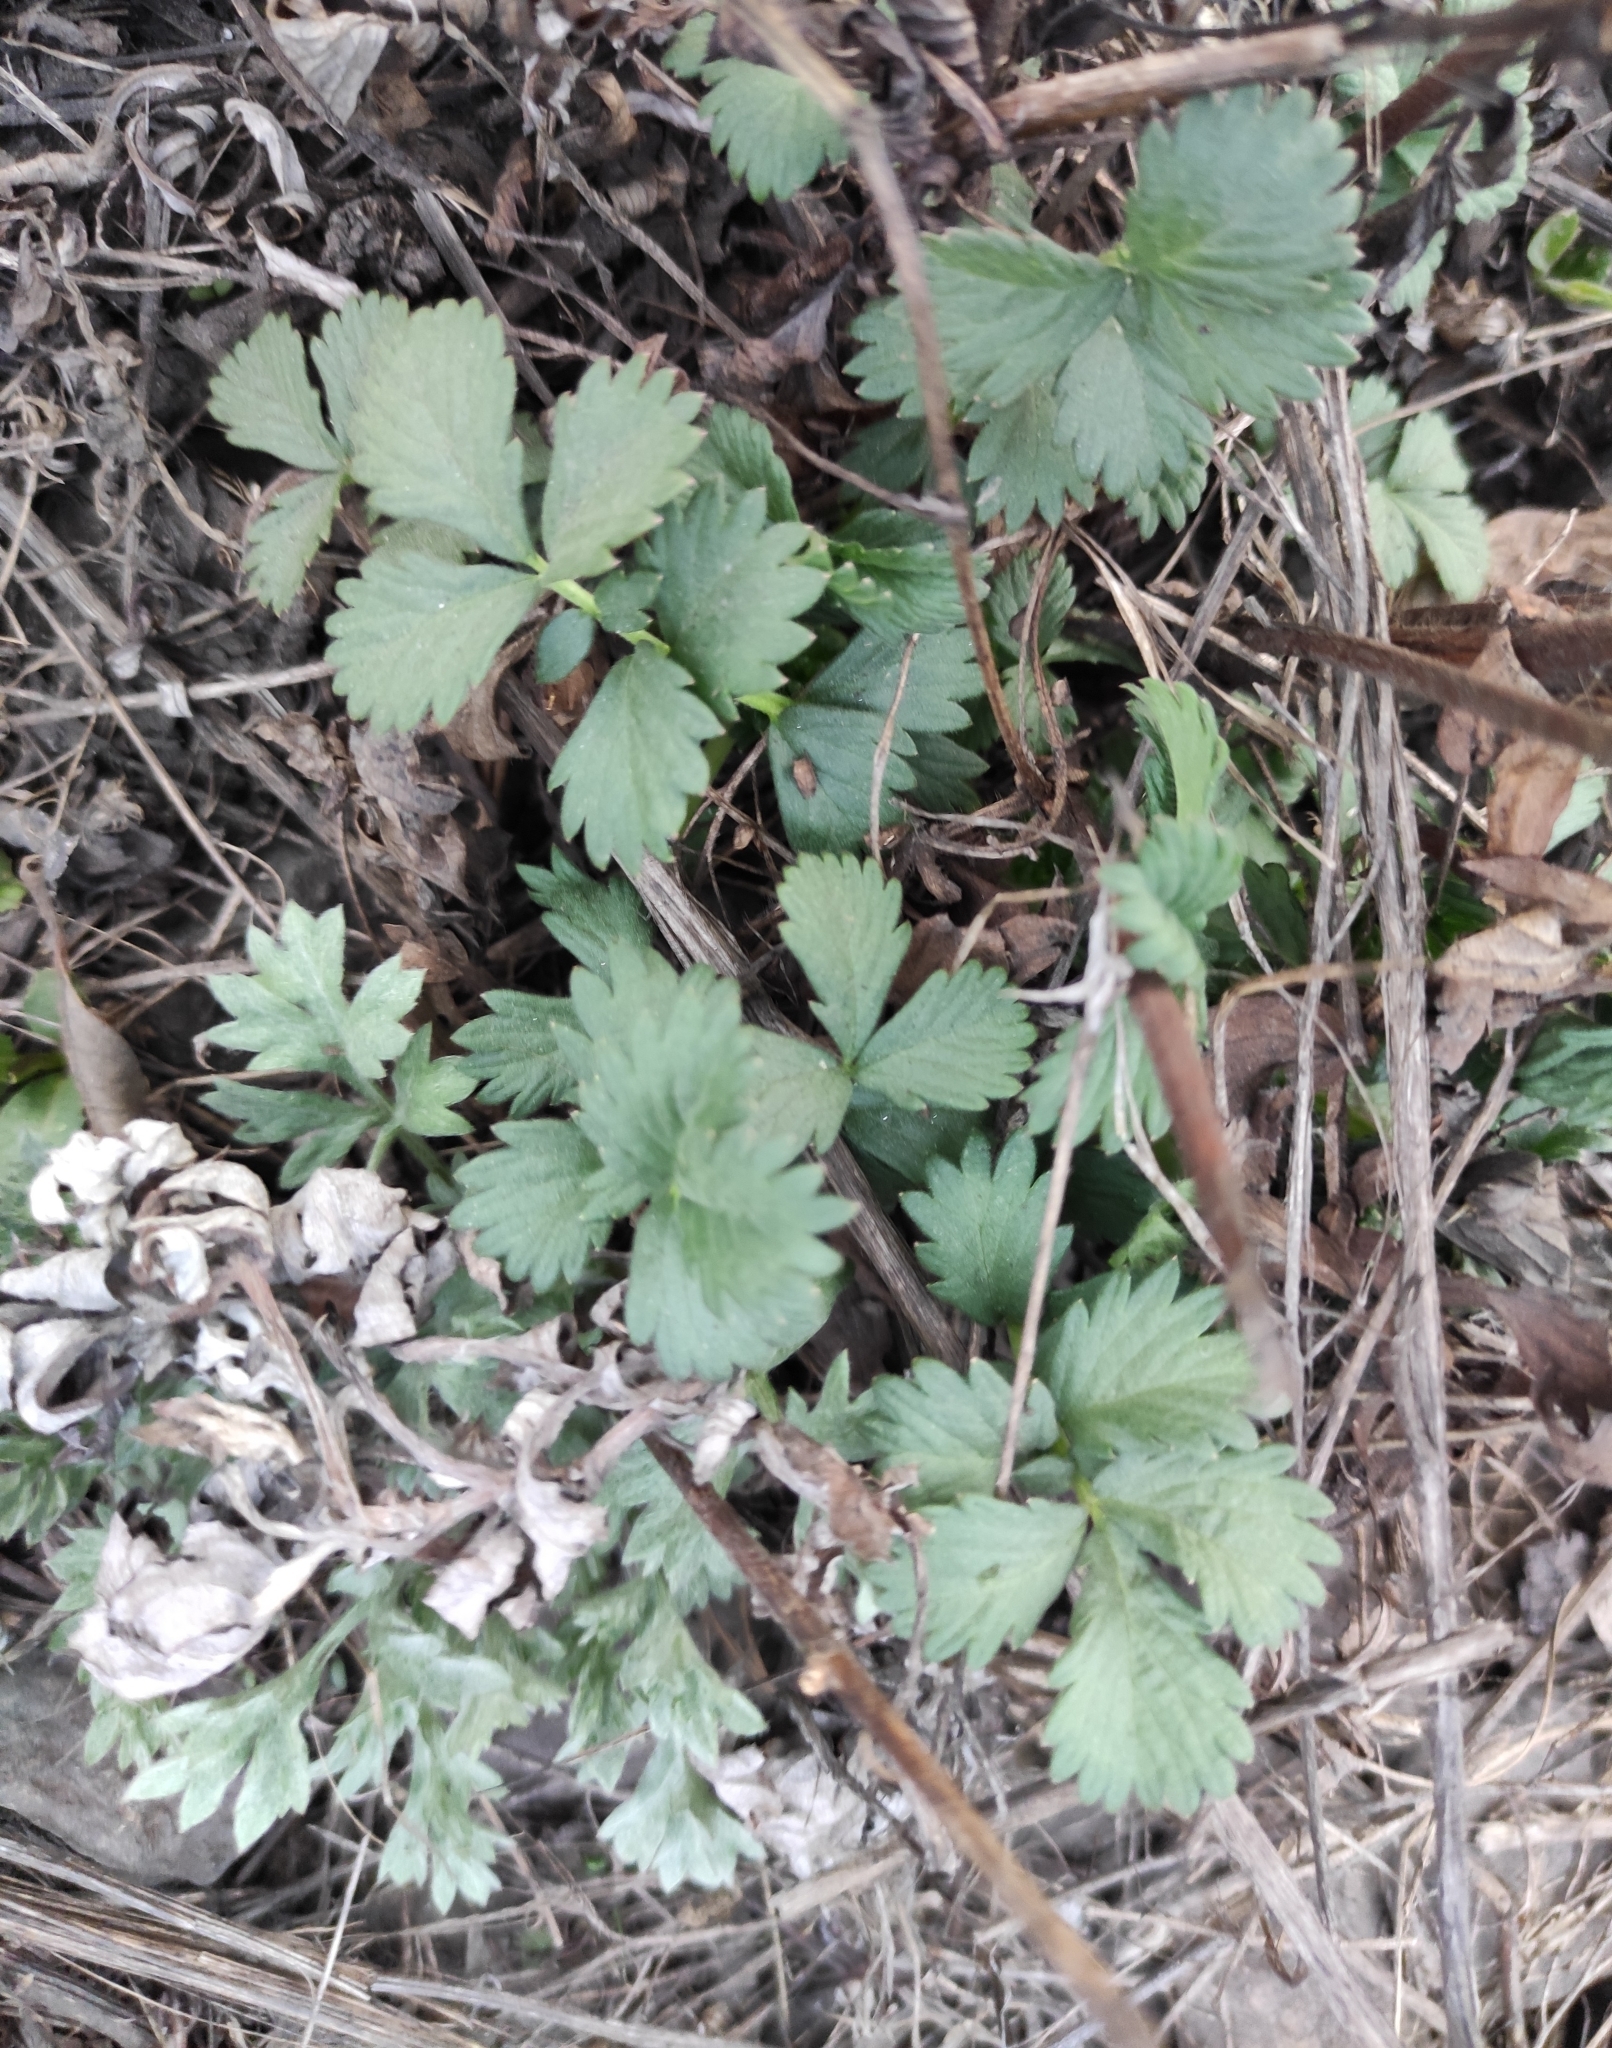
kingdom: Plantae
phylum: Tracheophyta
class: Magnoliopsida
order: Rosales
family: Rosaceae
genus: Agrimonia
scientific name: Agrimonia pilosa
